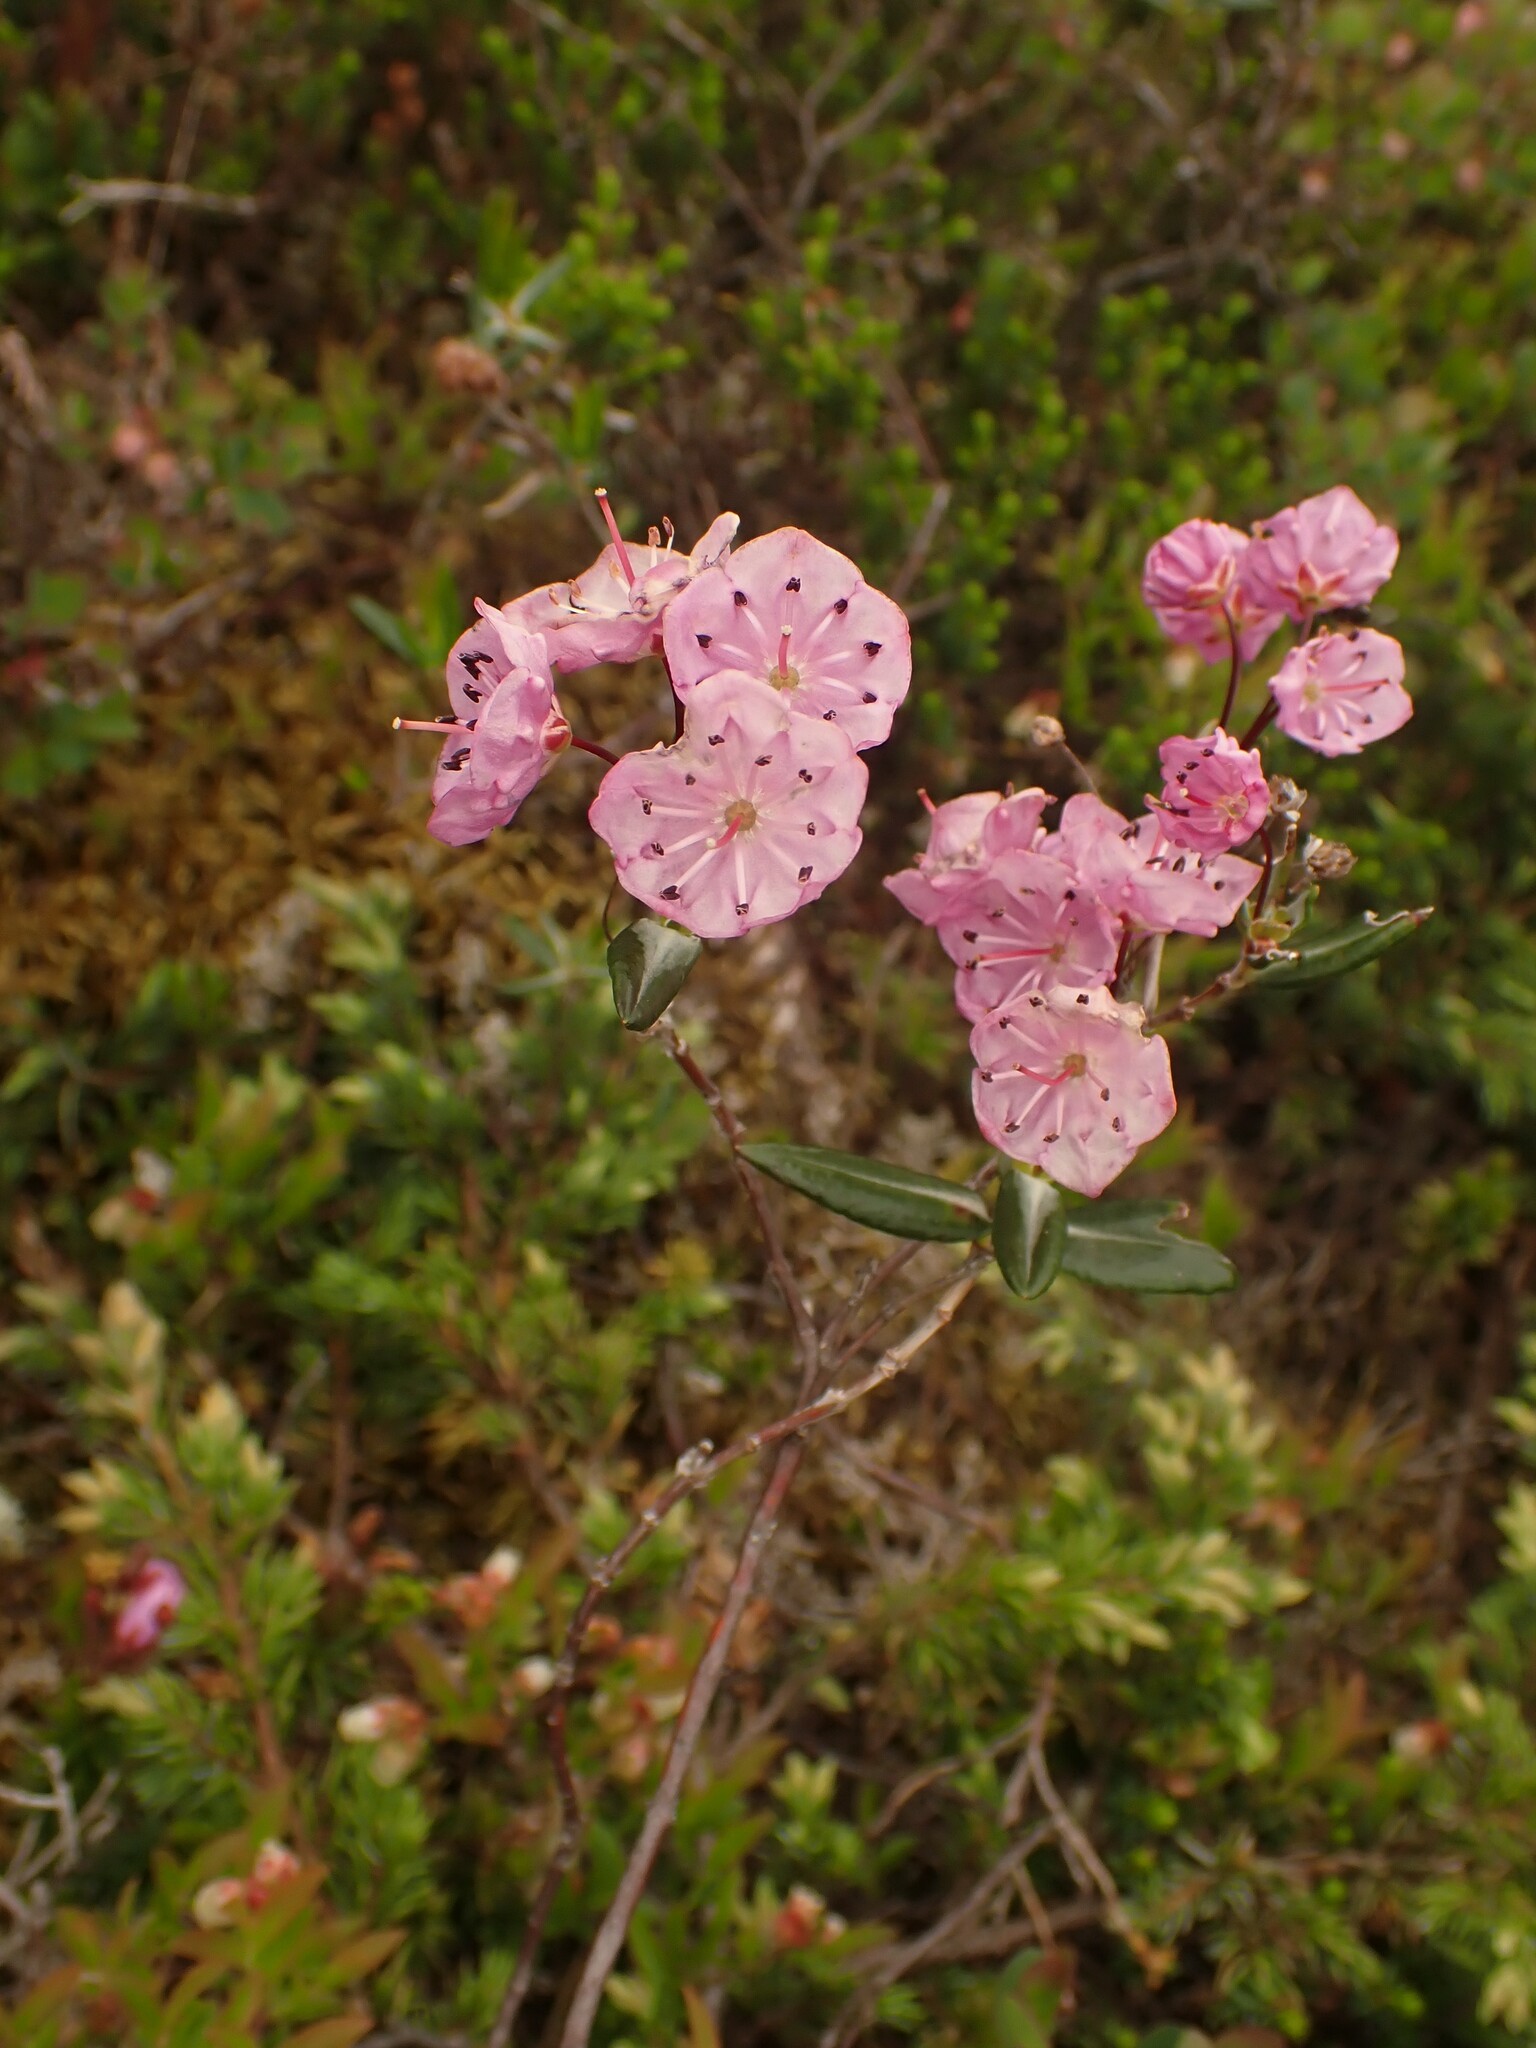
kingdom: Plantae
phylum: Tracheophyta
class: Magnoliopsida
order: Ericales
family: Ericaceae
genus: Kalmia
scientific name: Kalmia polifolia
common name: Bog-laurel
